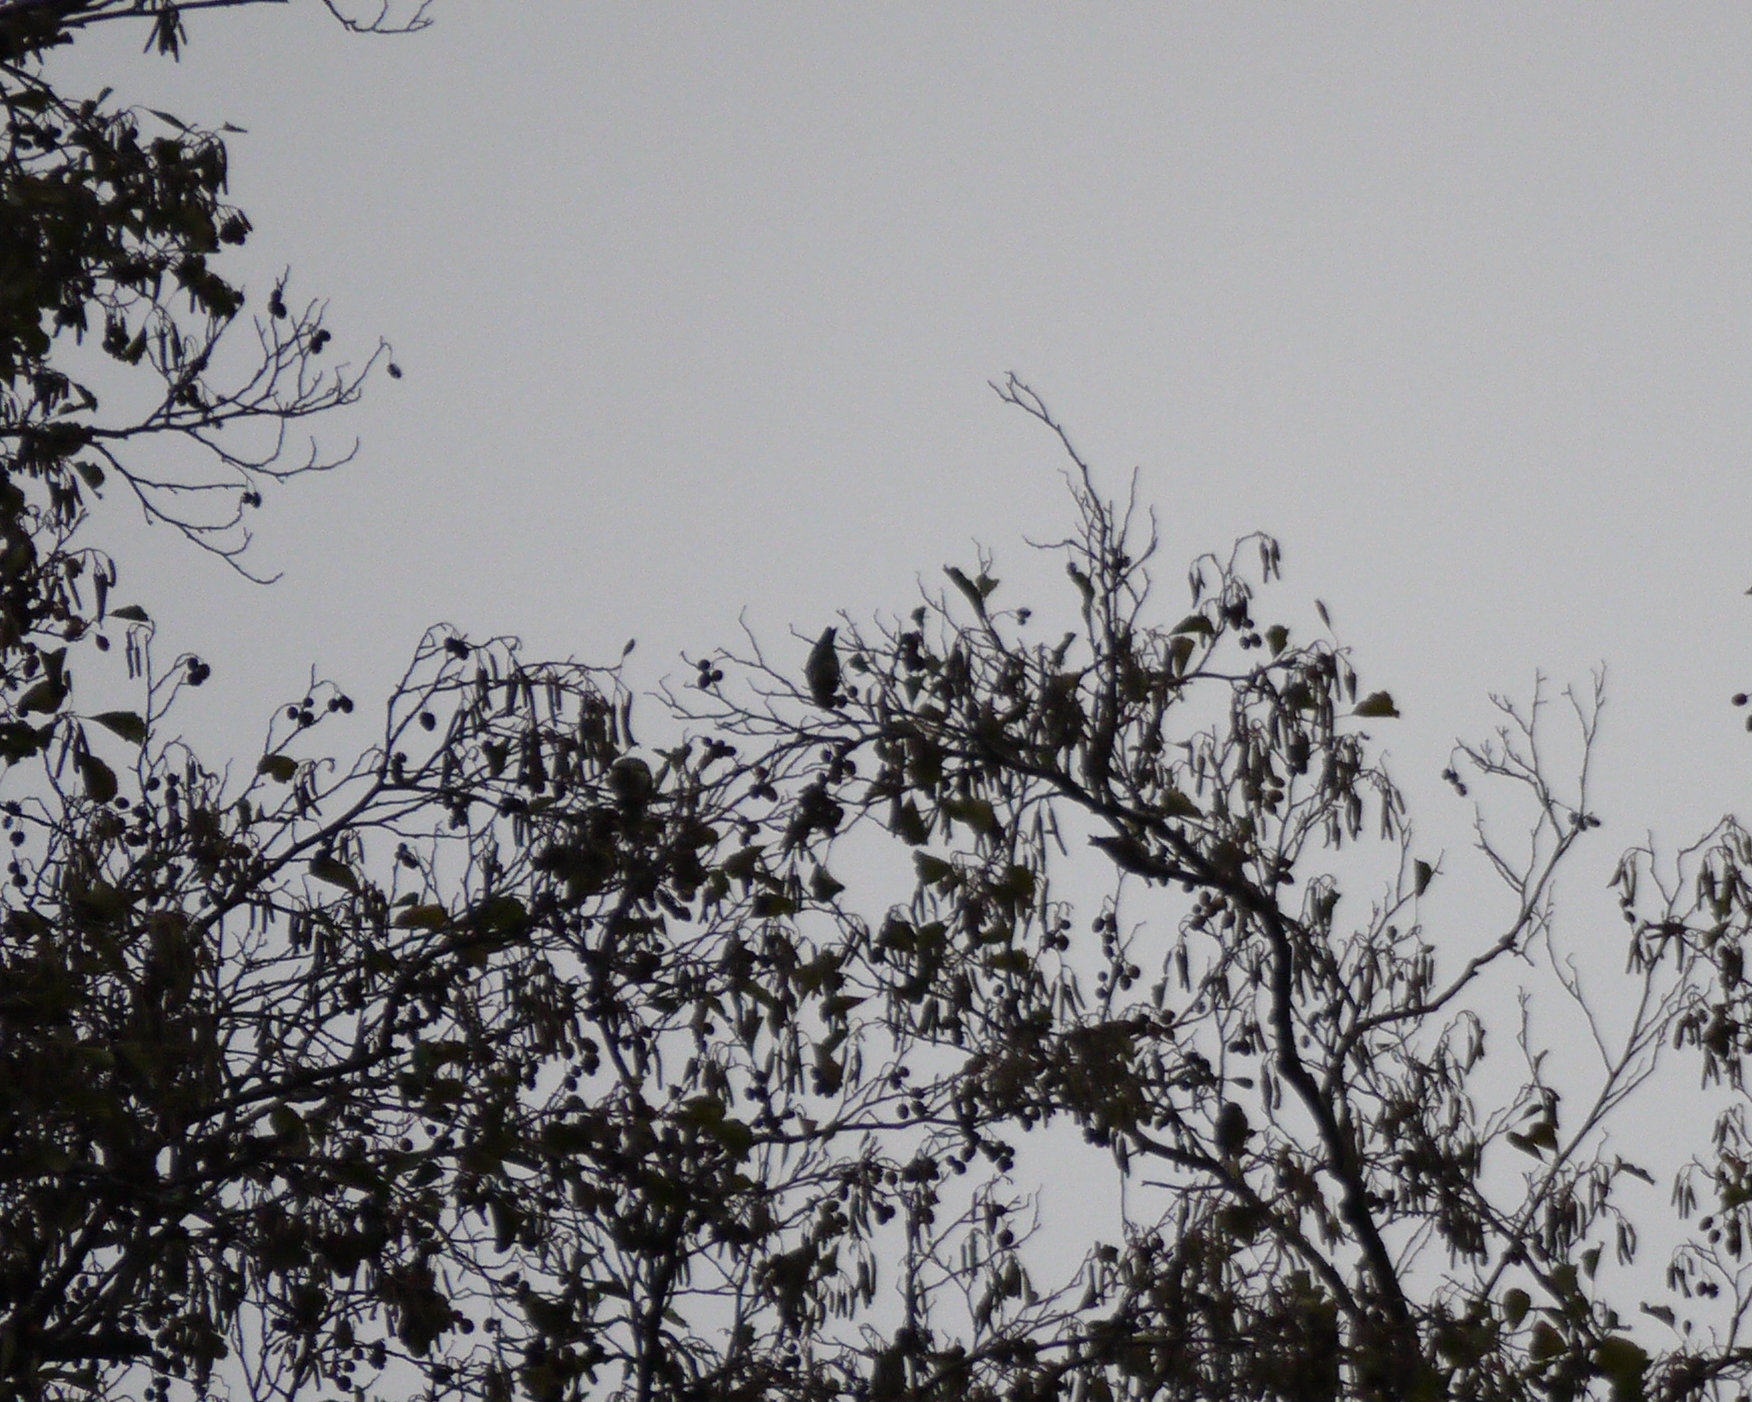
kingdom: Animalia
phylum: Chordata
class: Aves
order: Passeriformes
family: Fringillidae
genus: Spinus
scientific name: Spinus spinus
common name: Eurasian siskin
